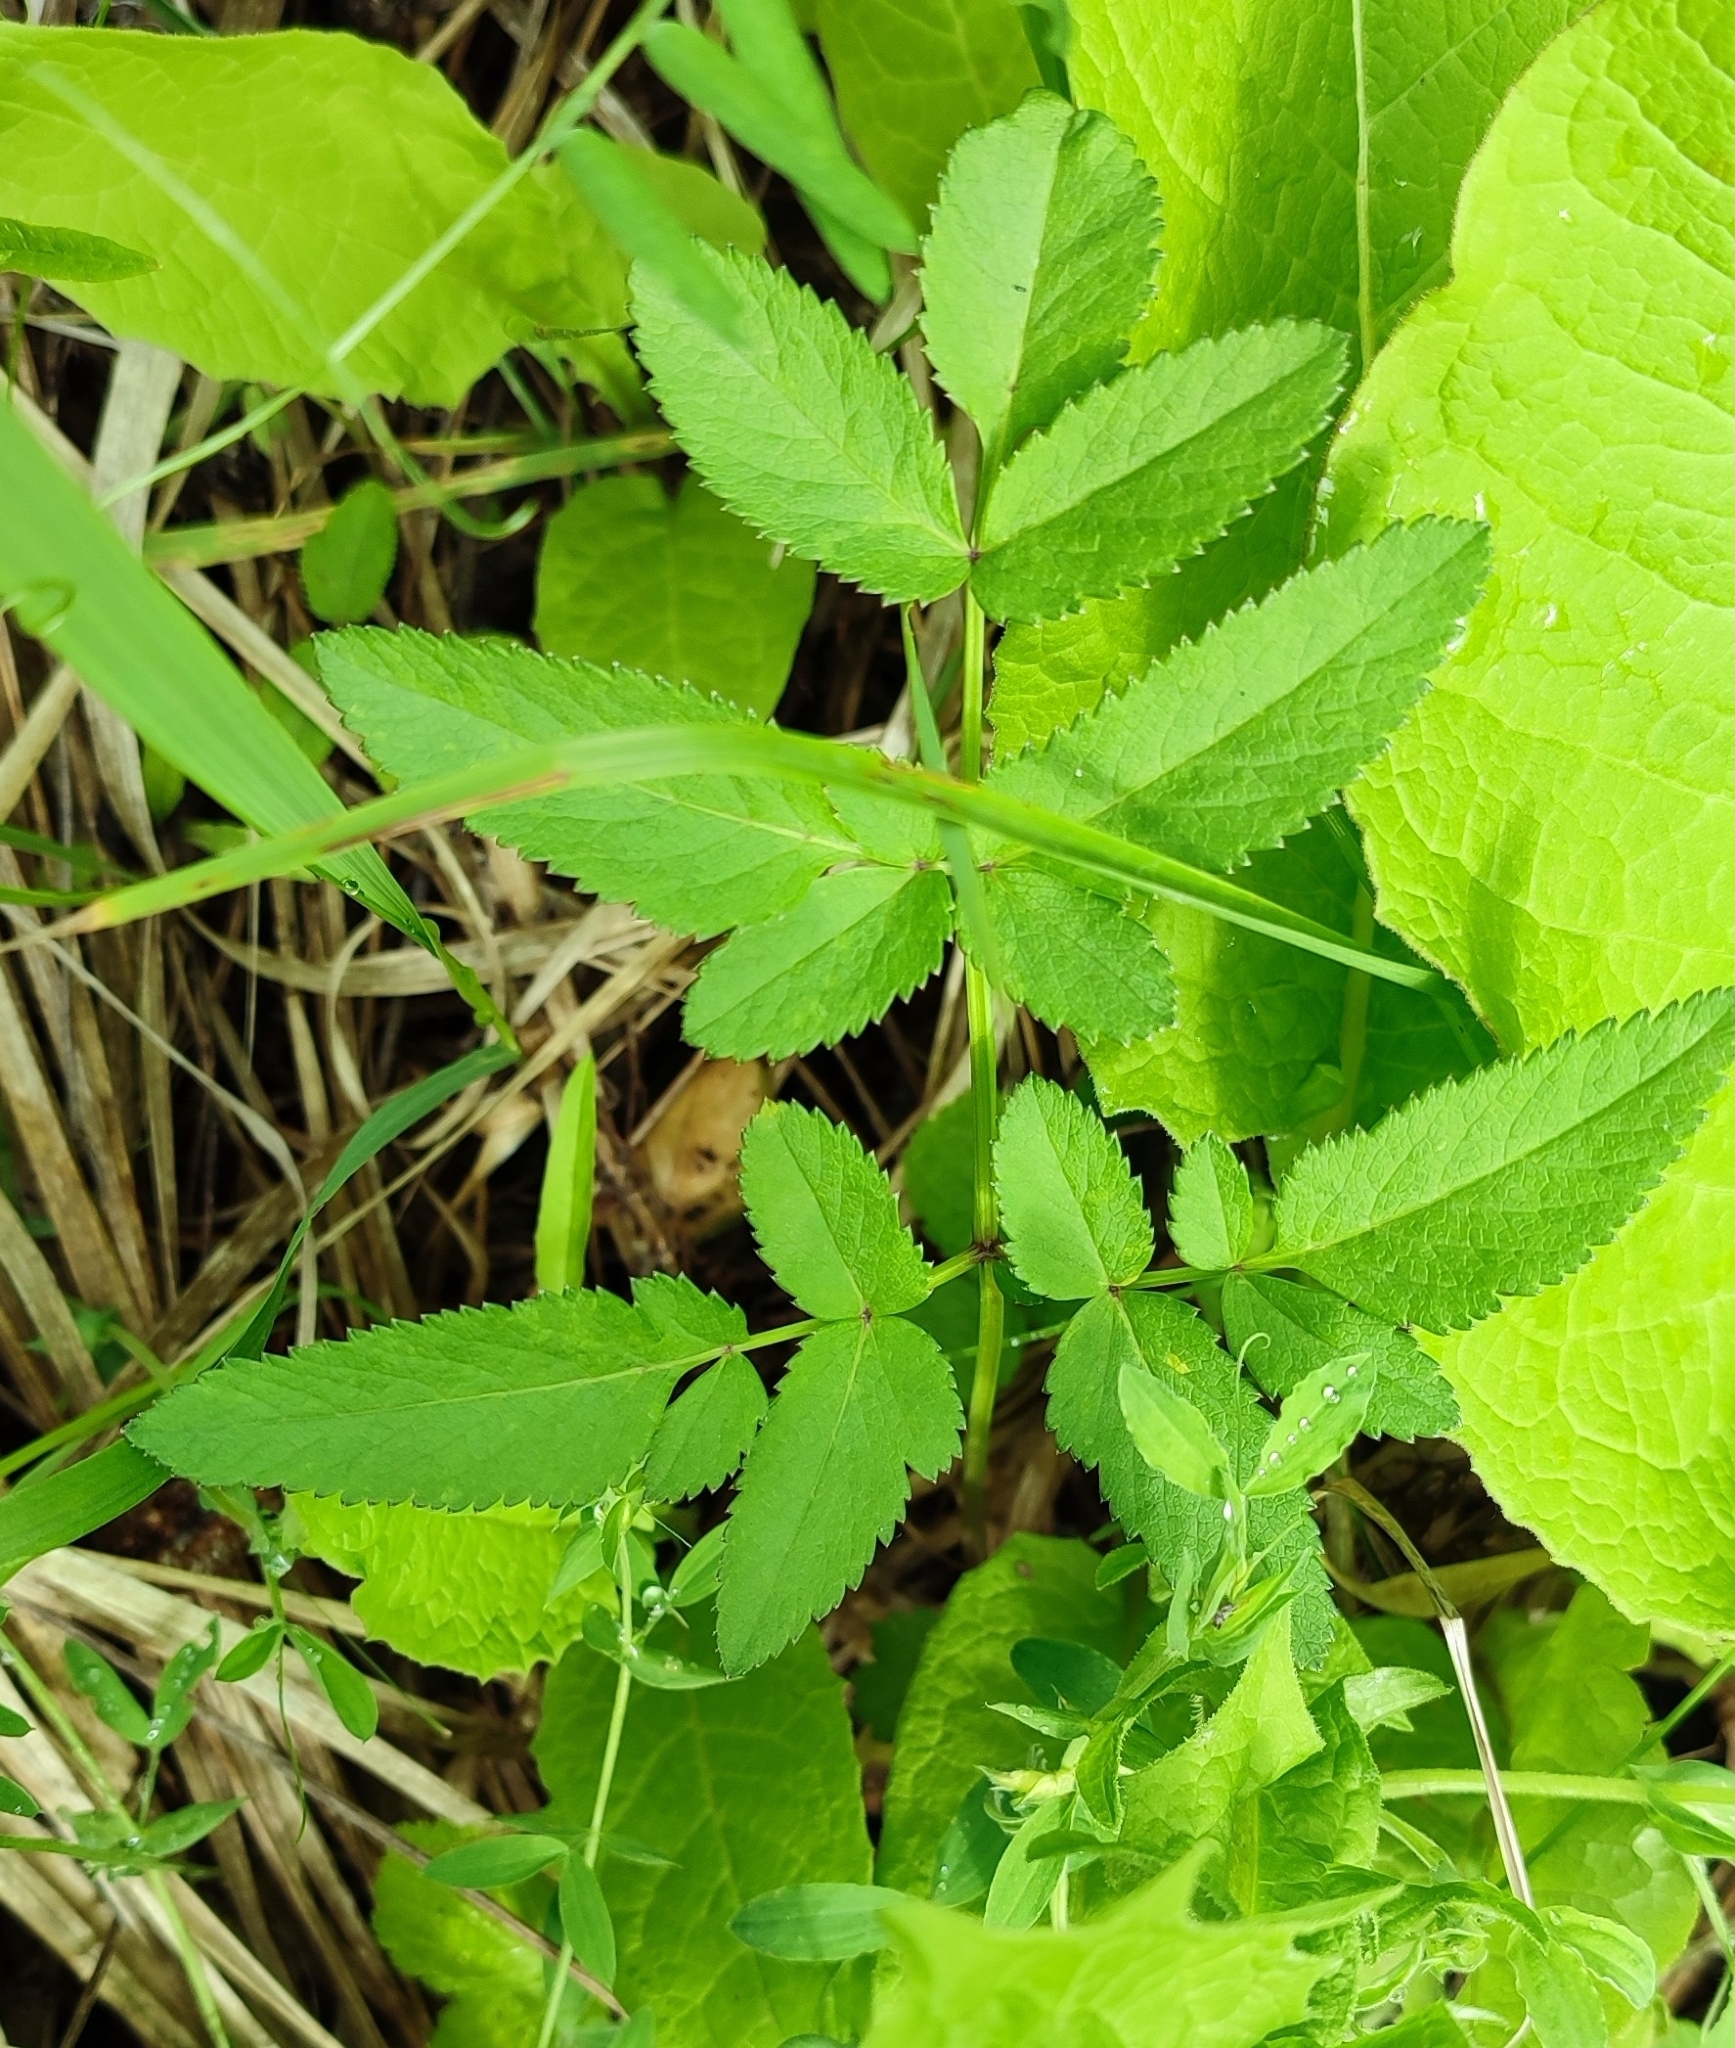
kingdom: Plantae
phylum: Tracheophyta
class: Magnoliopsida
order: Apiales
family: Apiaceae
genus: Angelica
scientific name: Angelica sylvestris
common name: Wild angelica
